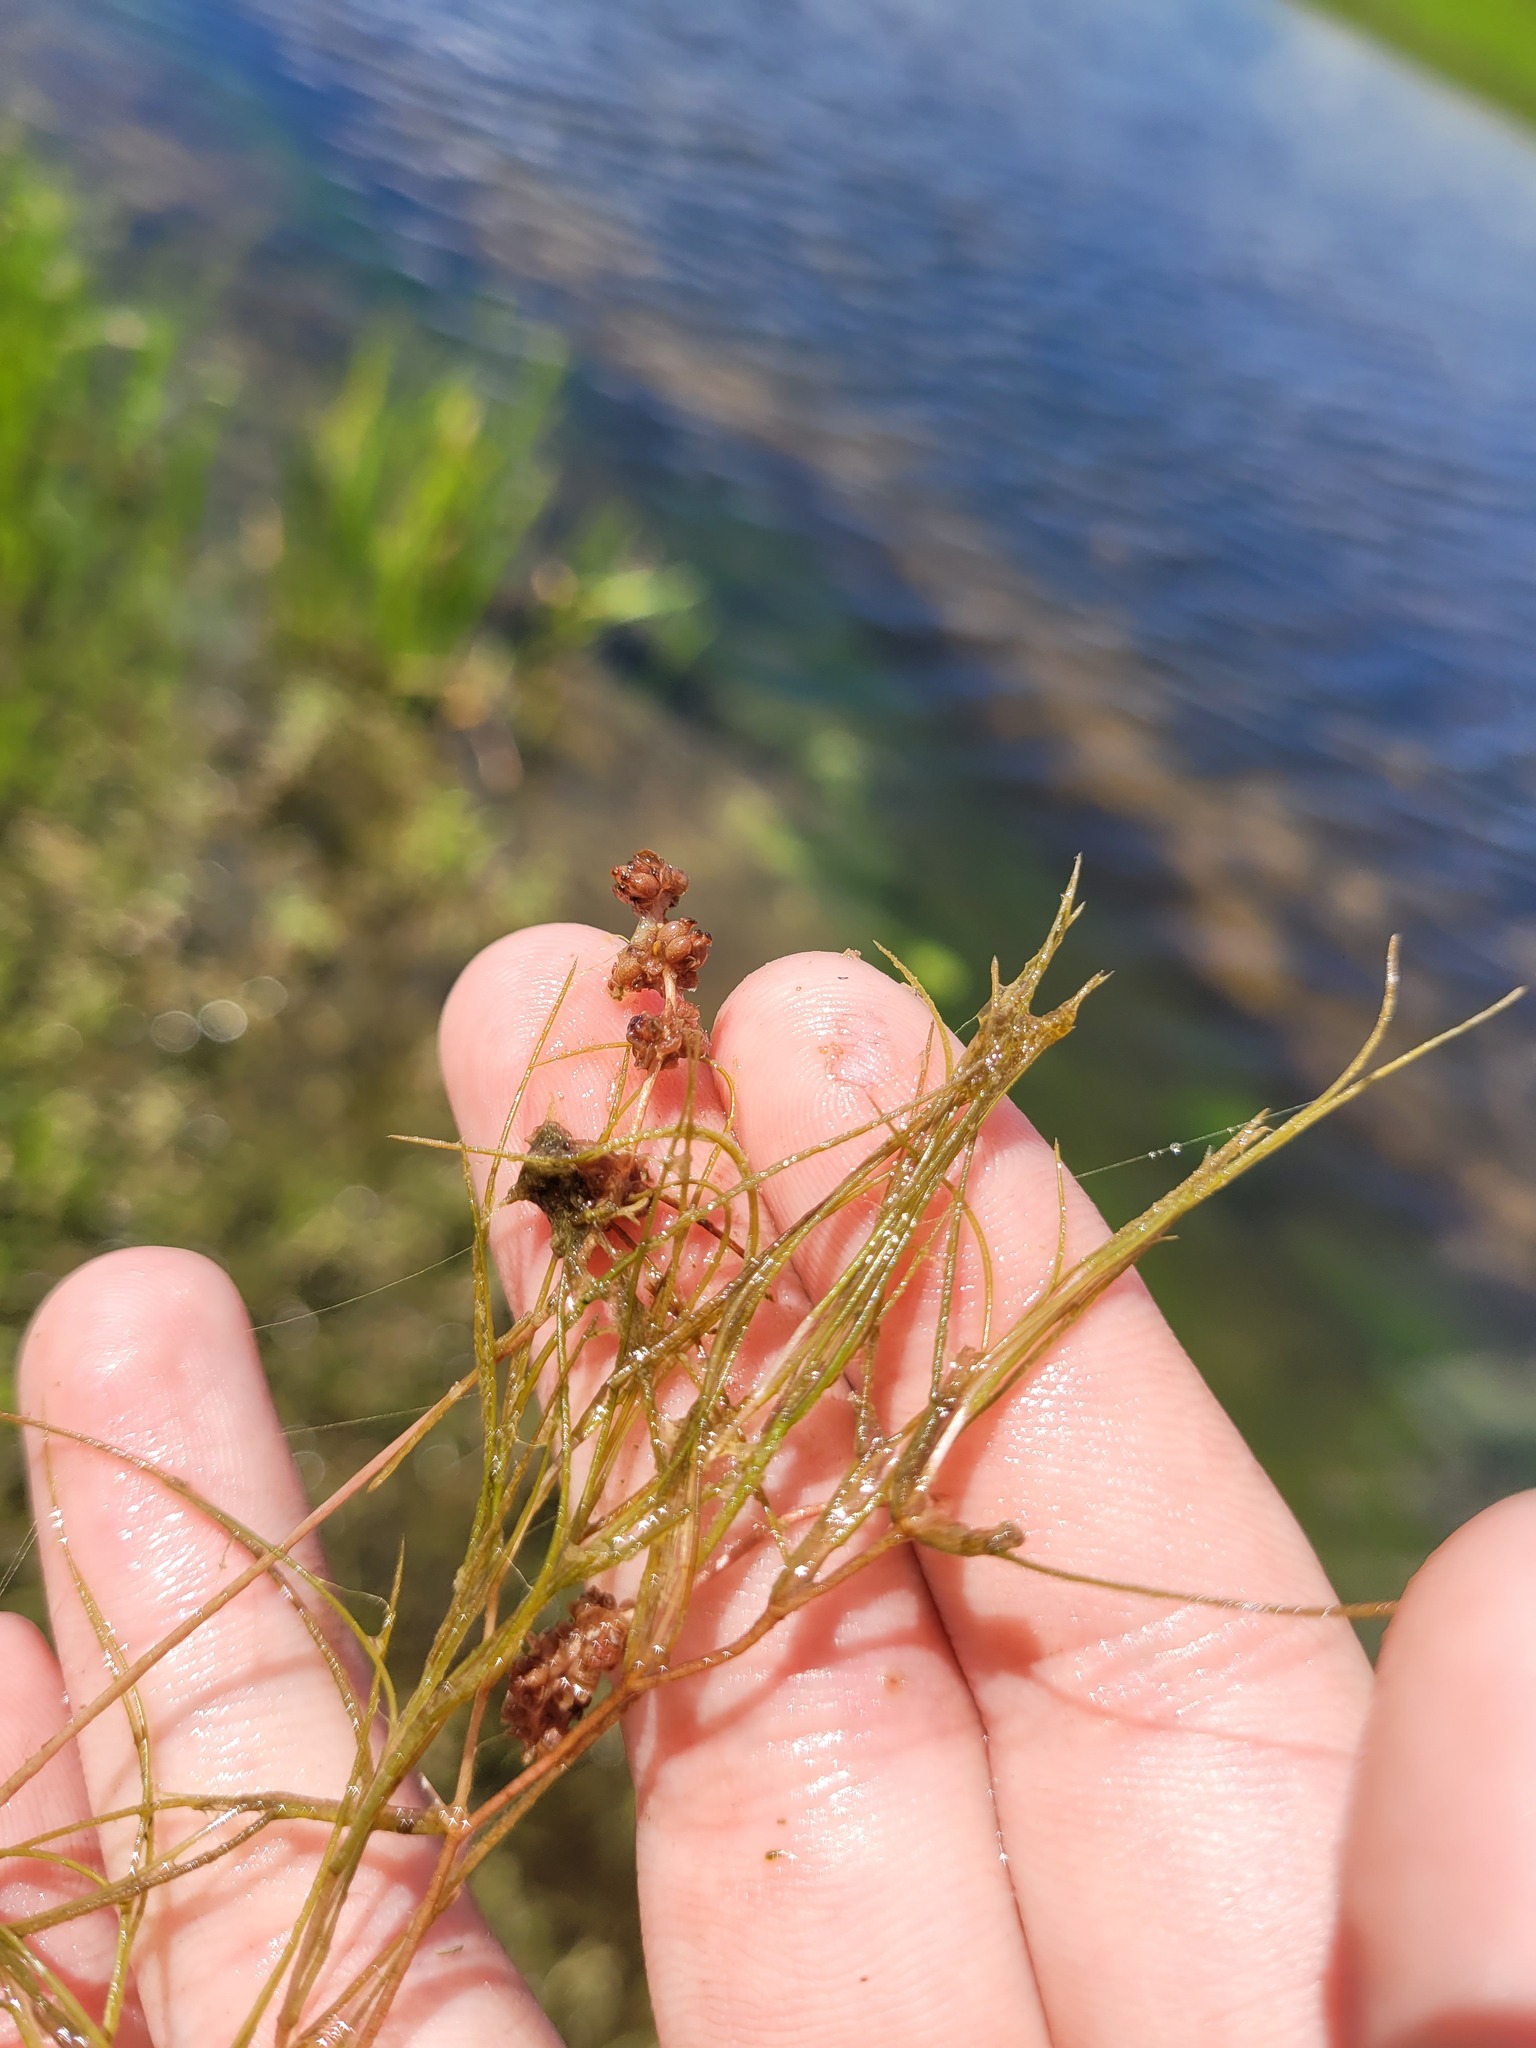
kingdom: Plantae
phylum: Tracheophyta
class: Liliopsida
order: Alismatales
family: Potamogetonaceae
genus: Stuckenia
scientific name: Stuckenia pectinata
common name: Sago pondweed
